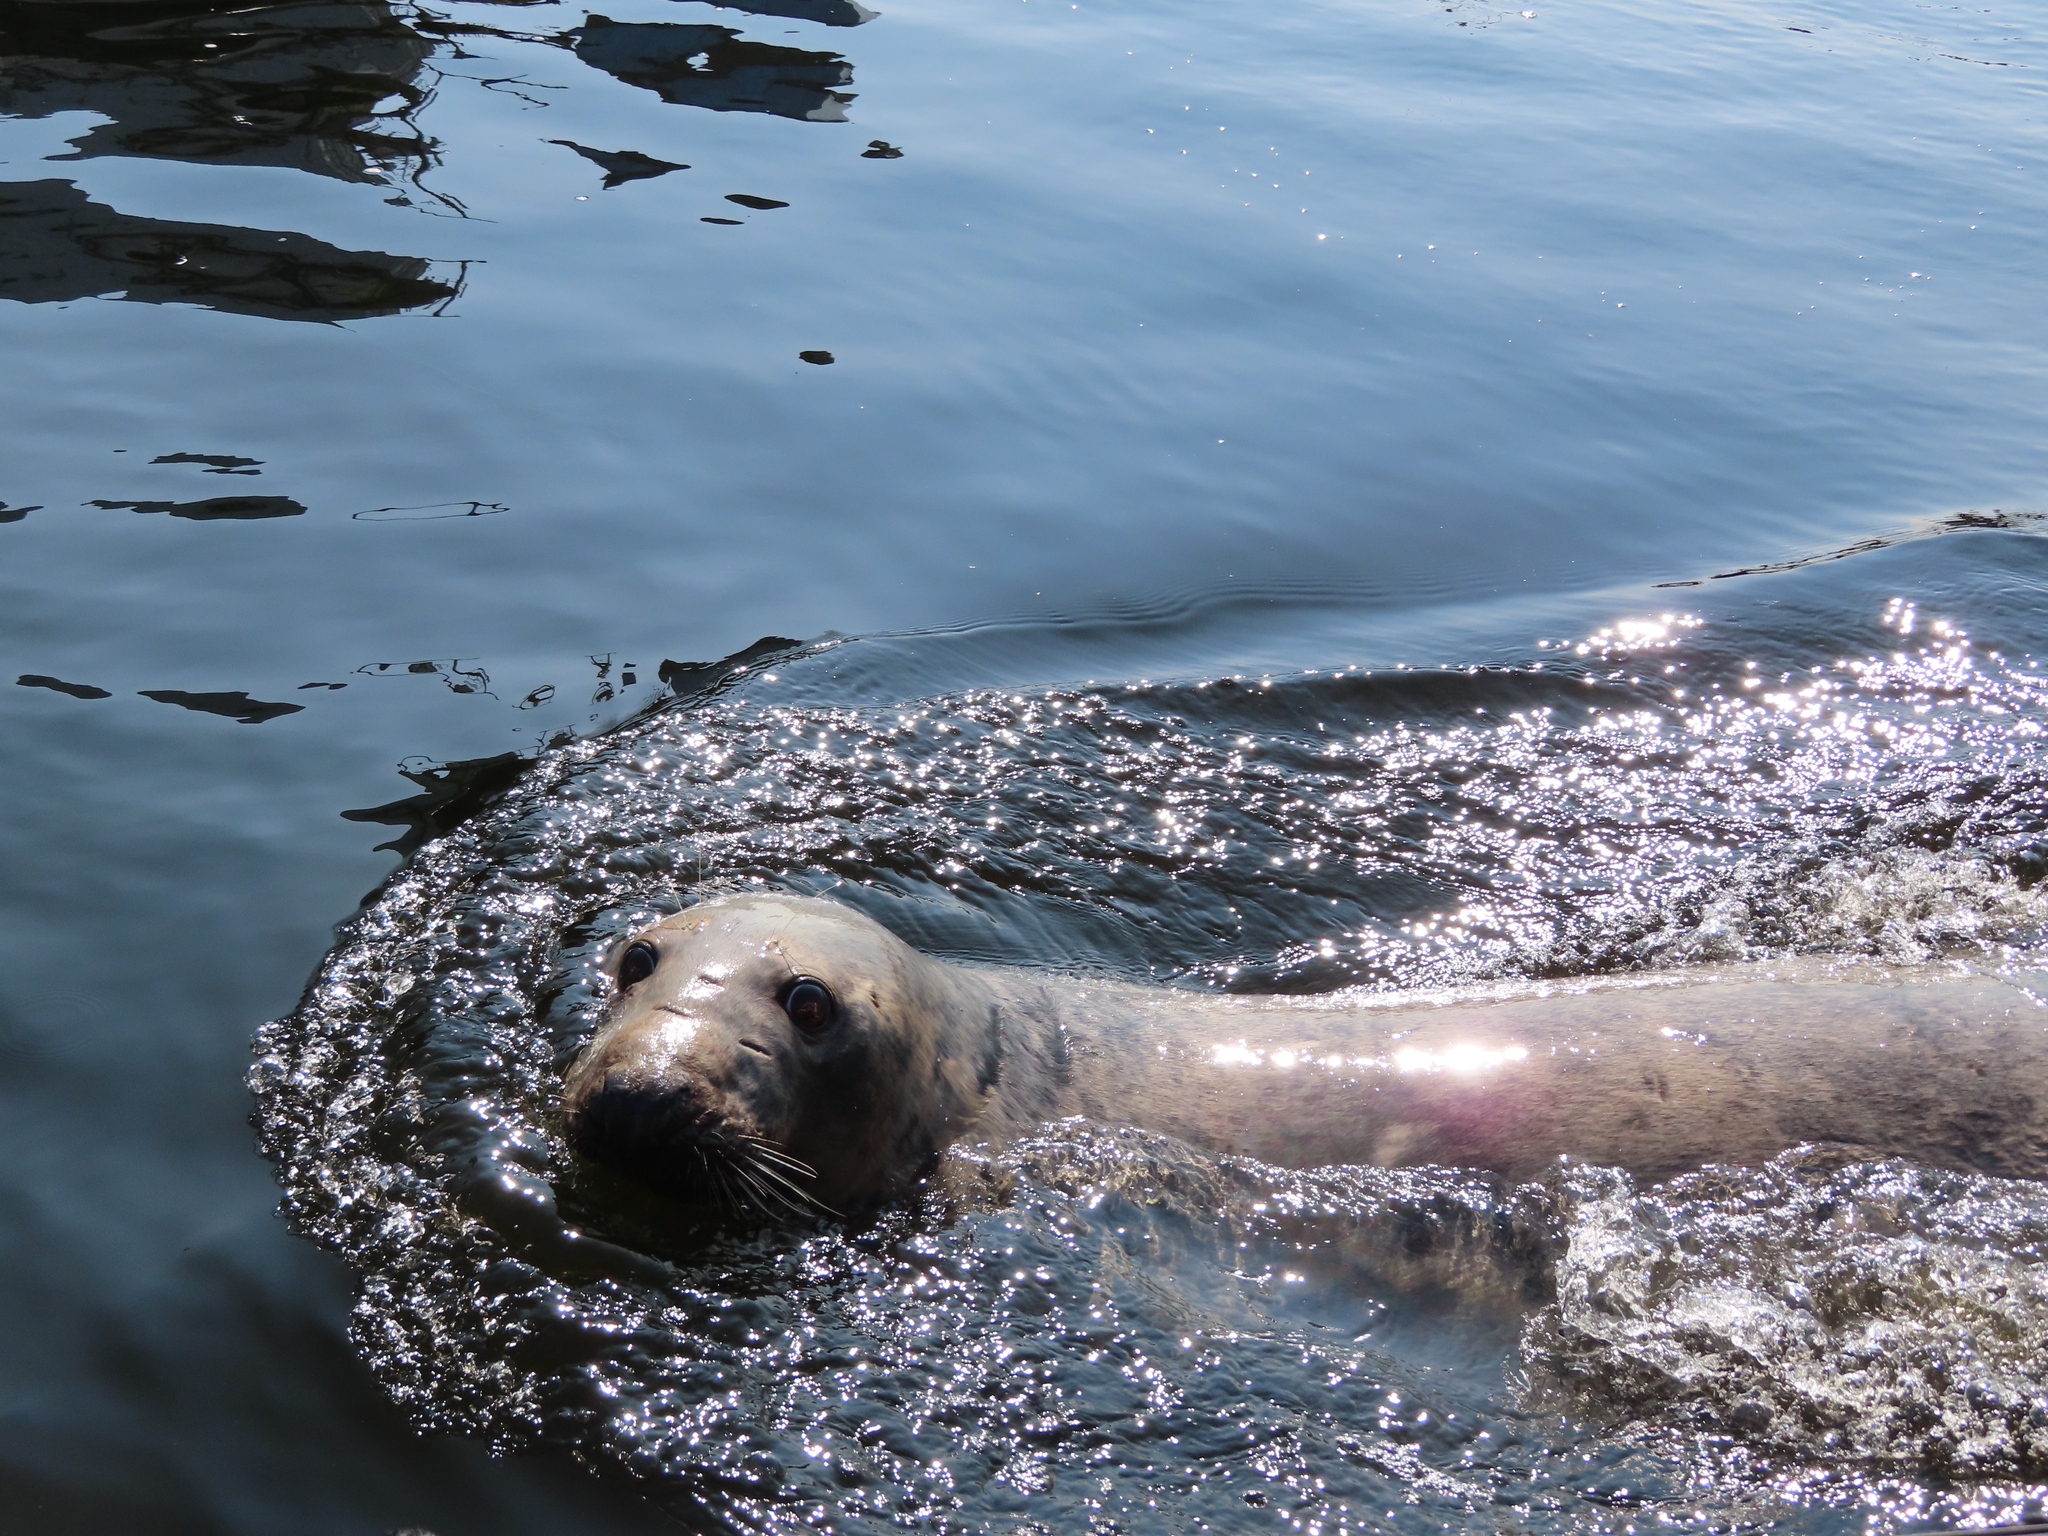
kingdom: Animalia
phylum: Chordata
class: Mammalia
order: Carnivora
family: Phocidae
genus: Halichoerus
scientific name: Halichoerus grypus
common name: Grey seal
